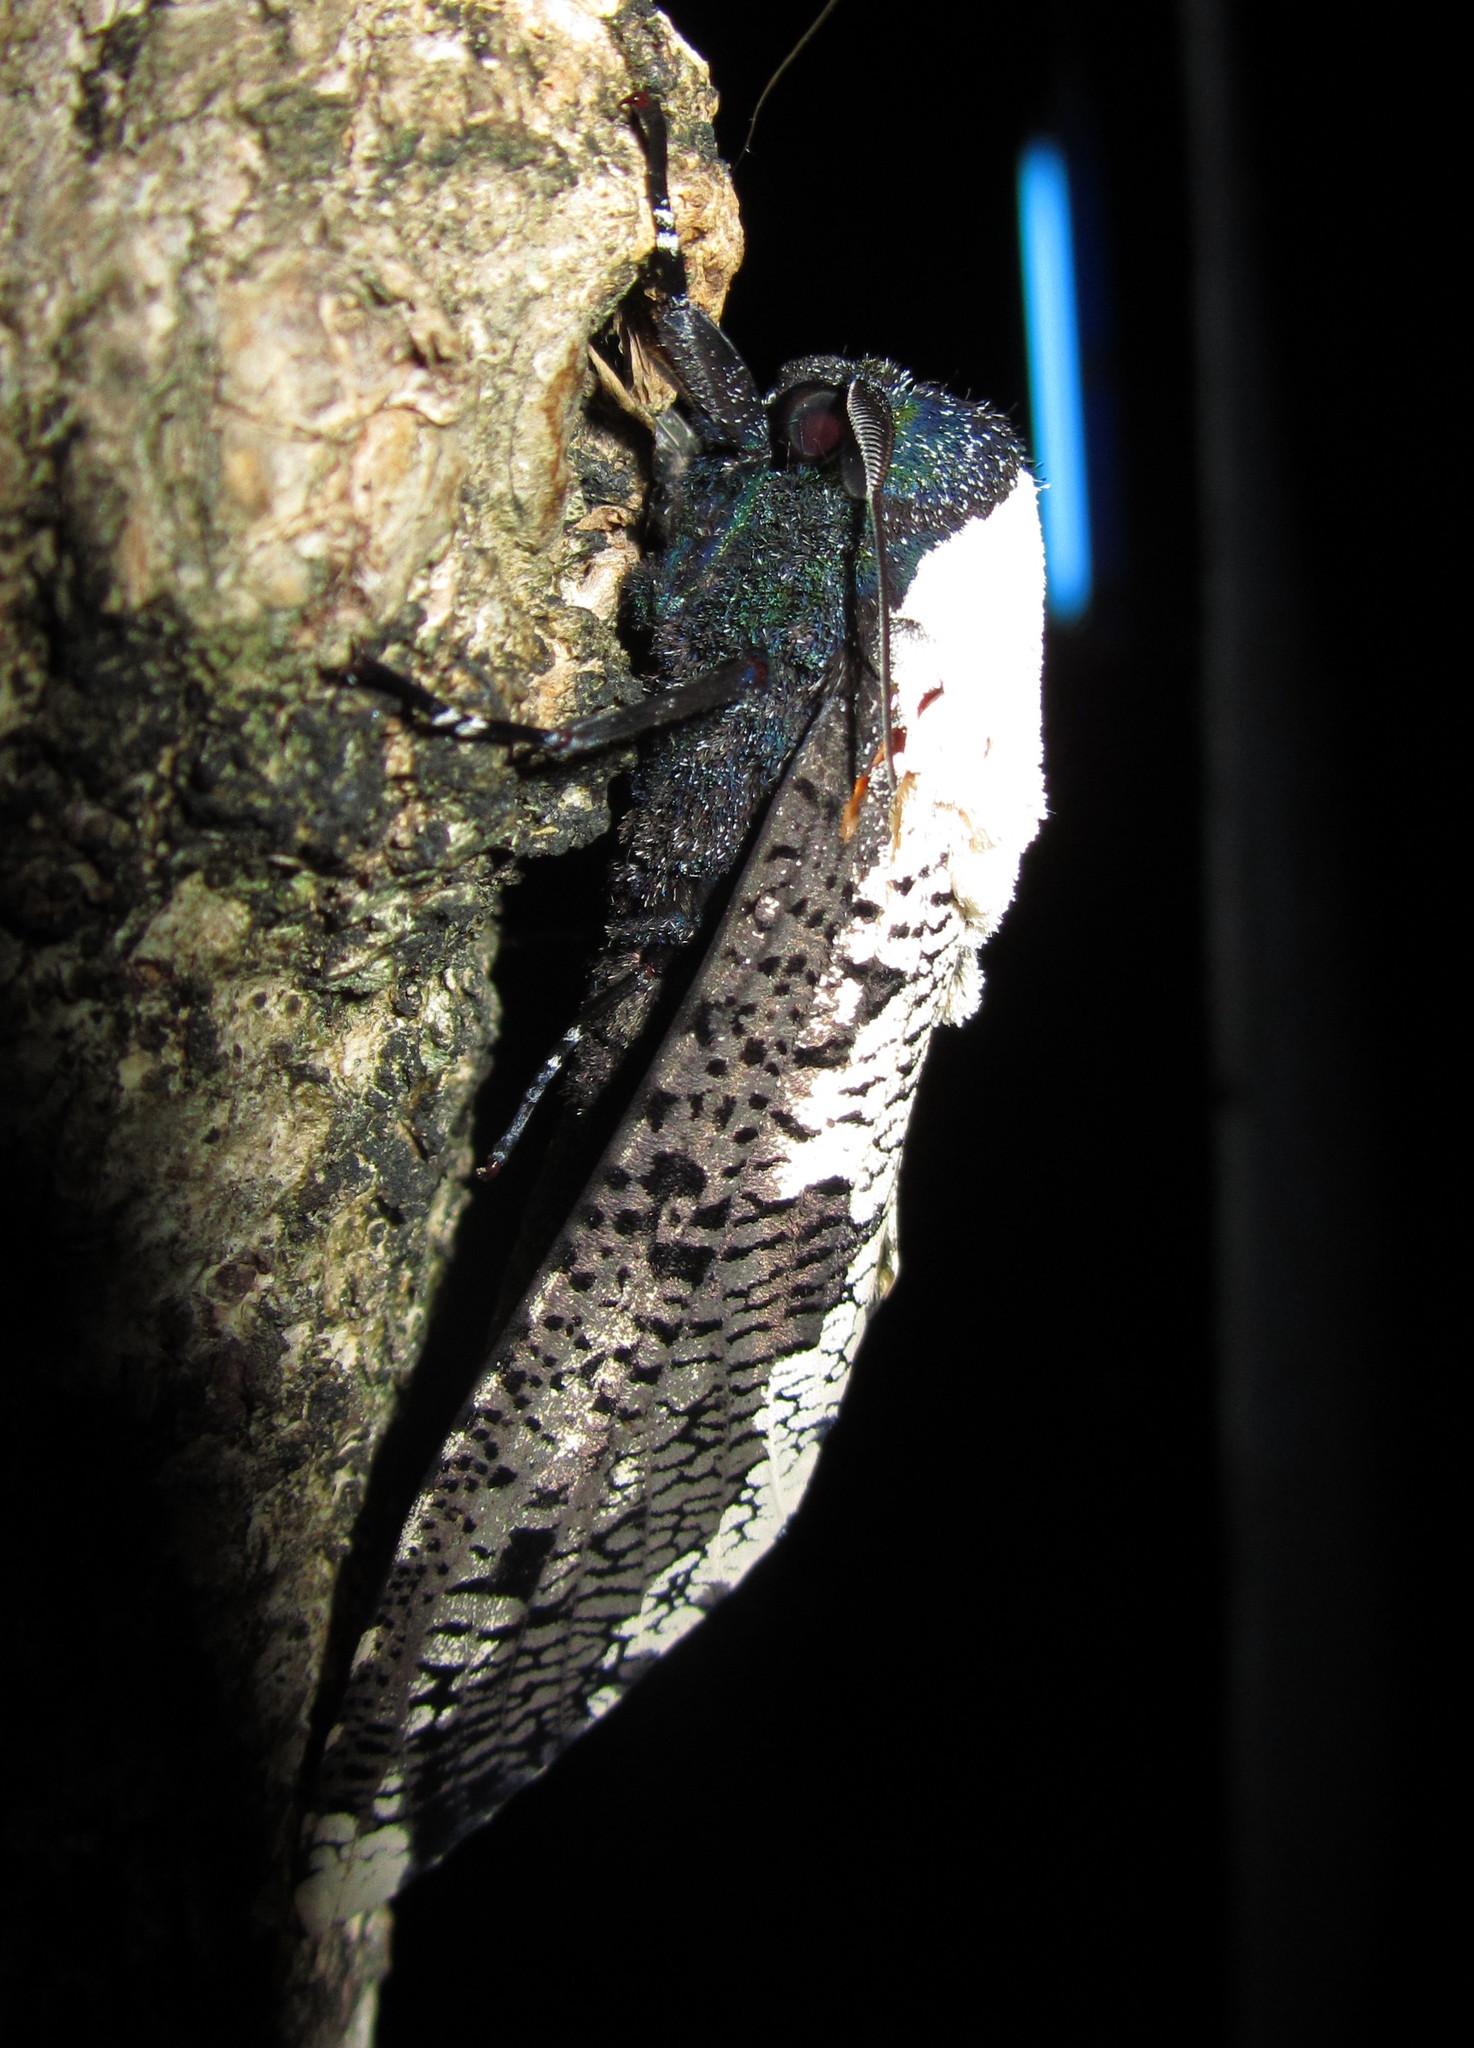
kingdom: Animalia
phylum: Arthropoda
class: Insecta
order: Lepidoptera
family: Cossidae
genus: Xyleutes
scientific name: Xyleutes persona
